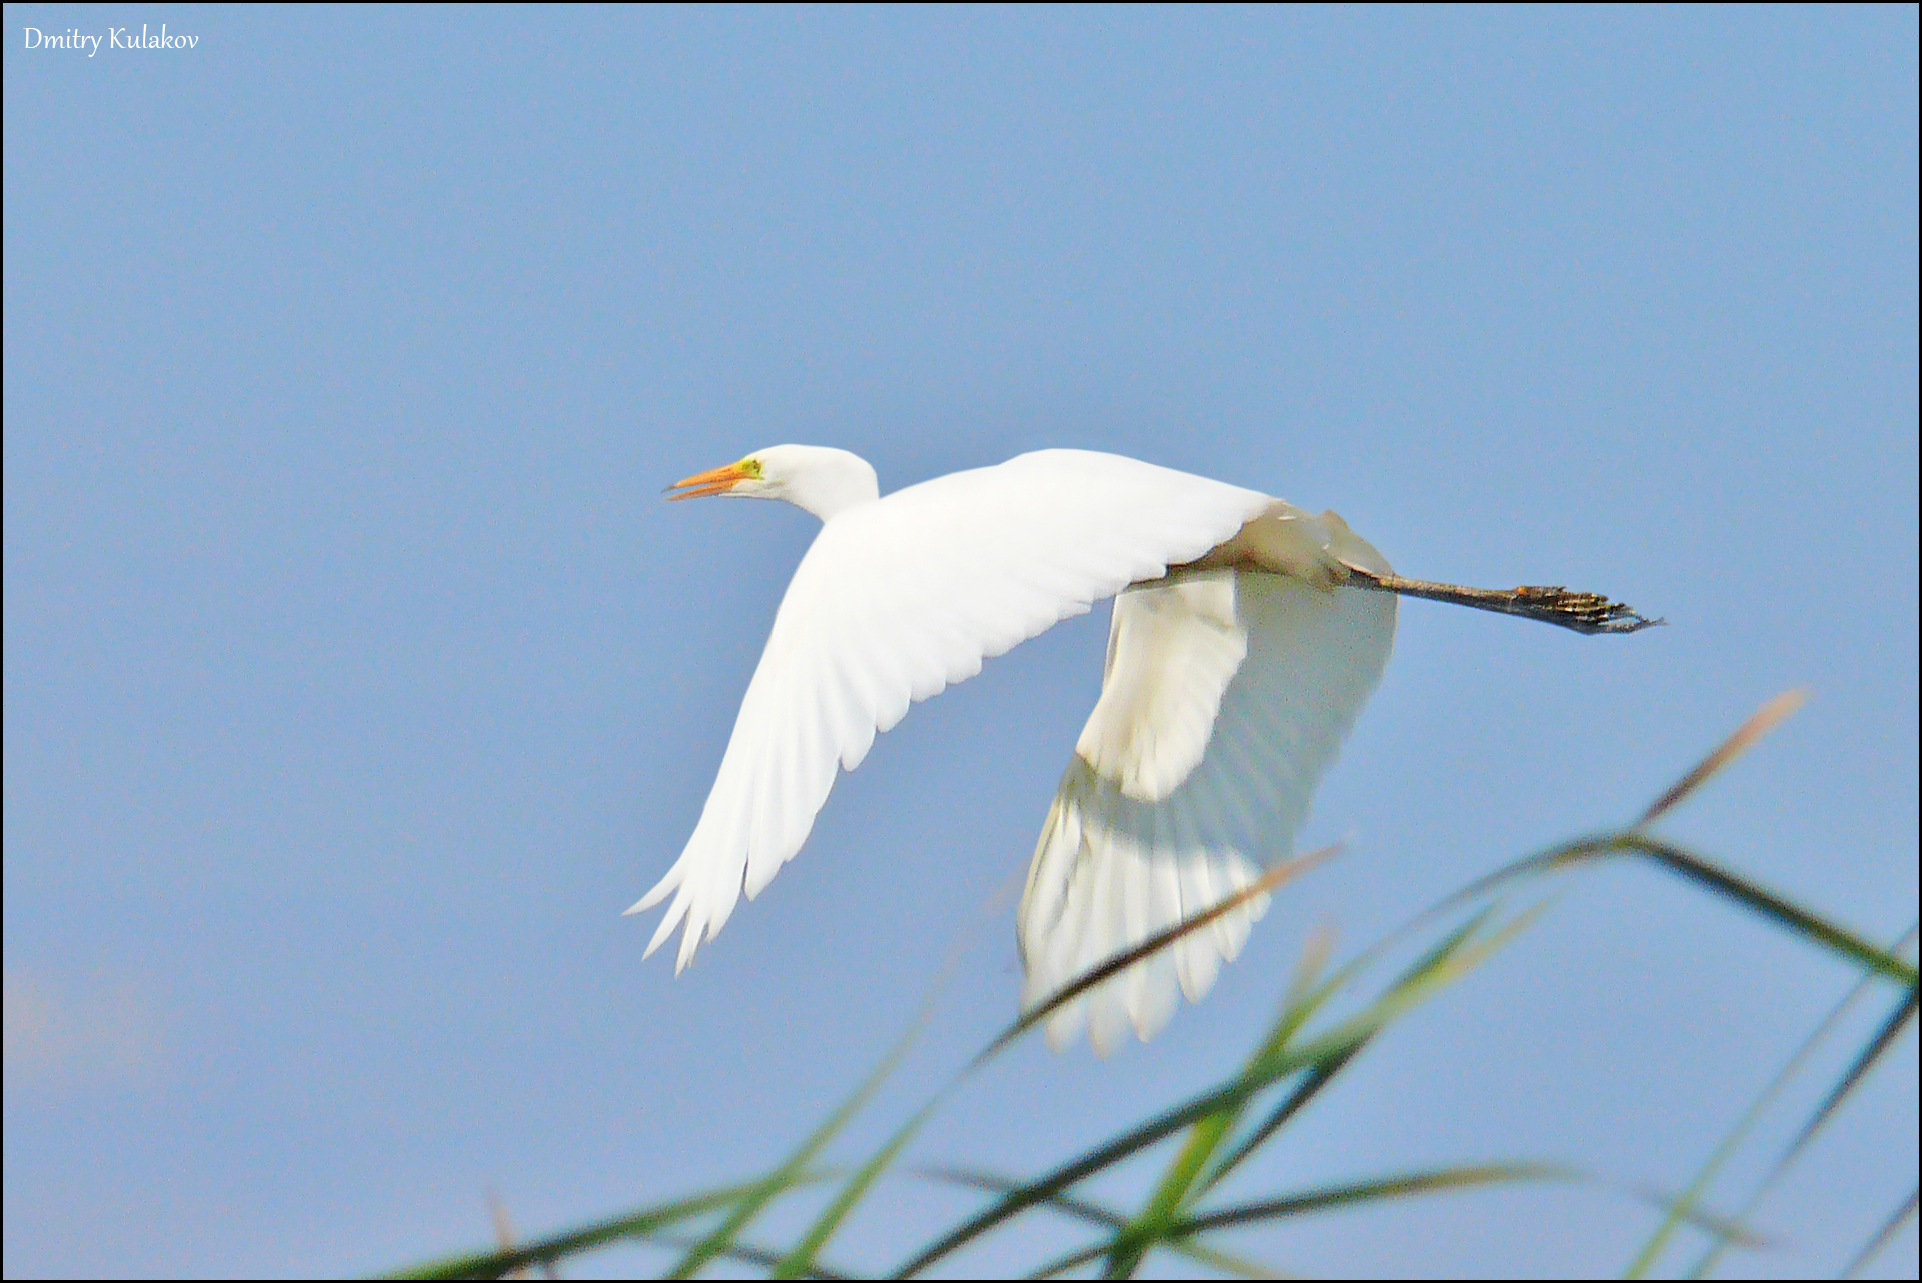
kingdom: Animalia
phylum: Chordata
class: Aves
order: Pelecaniformes
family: Ardeidae
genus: Ardea
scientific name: Ardea alba
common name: Great egret
